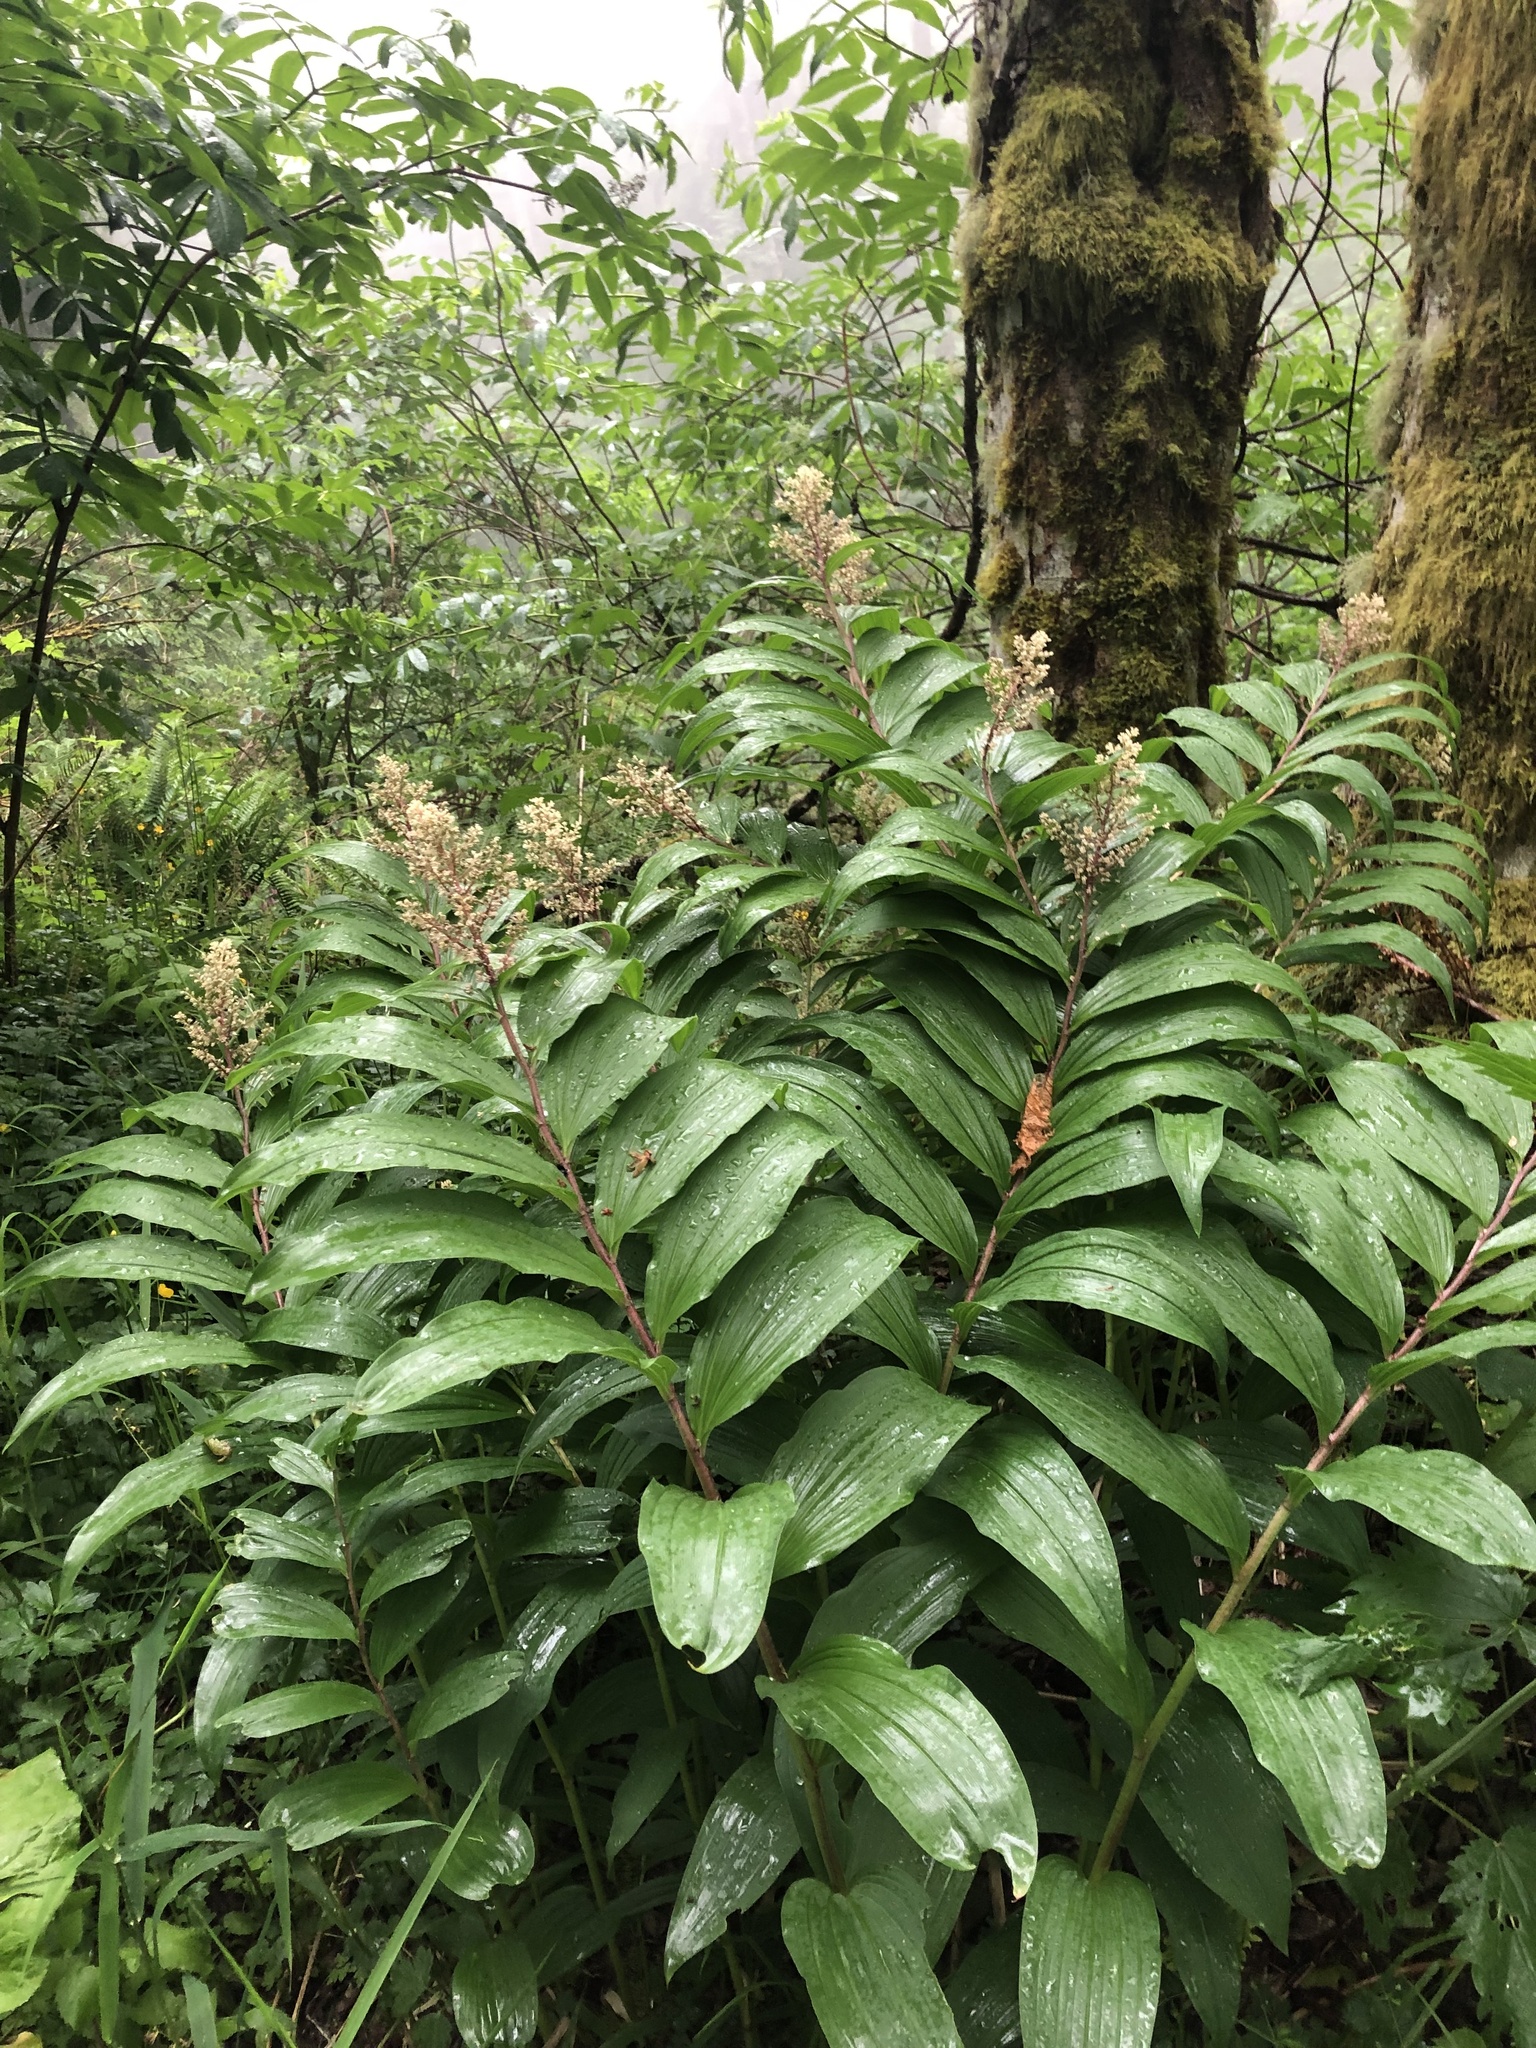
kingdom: Plantae
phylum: Tracheophyta
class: Liliopsida
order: Asparagales
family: Asparagaceae
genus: Maianthemum
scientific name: Maianthemum racemosum
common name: False spikenard
